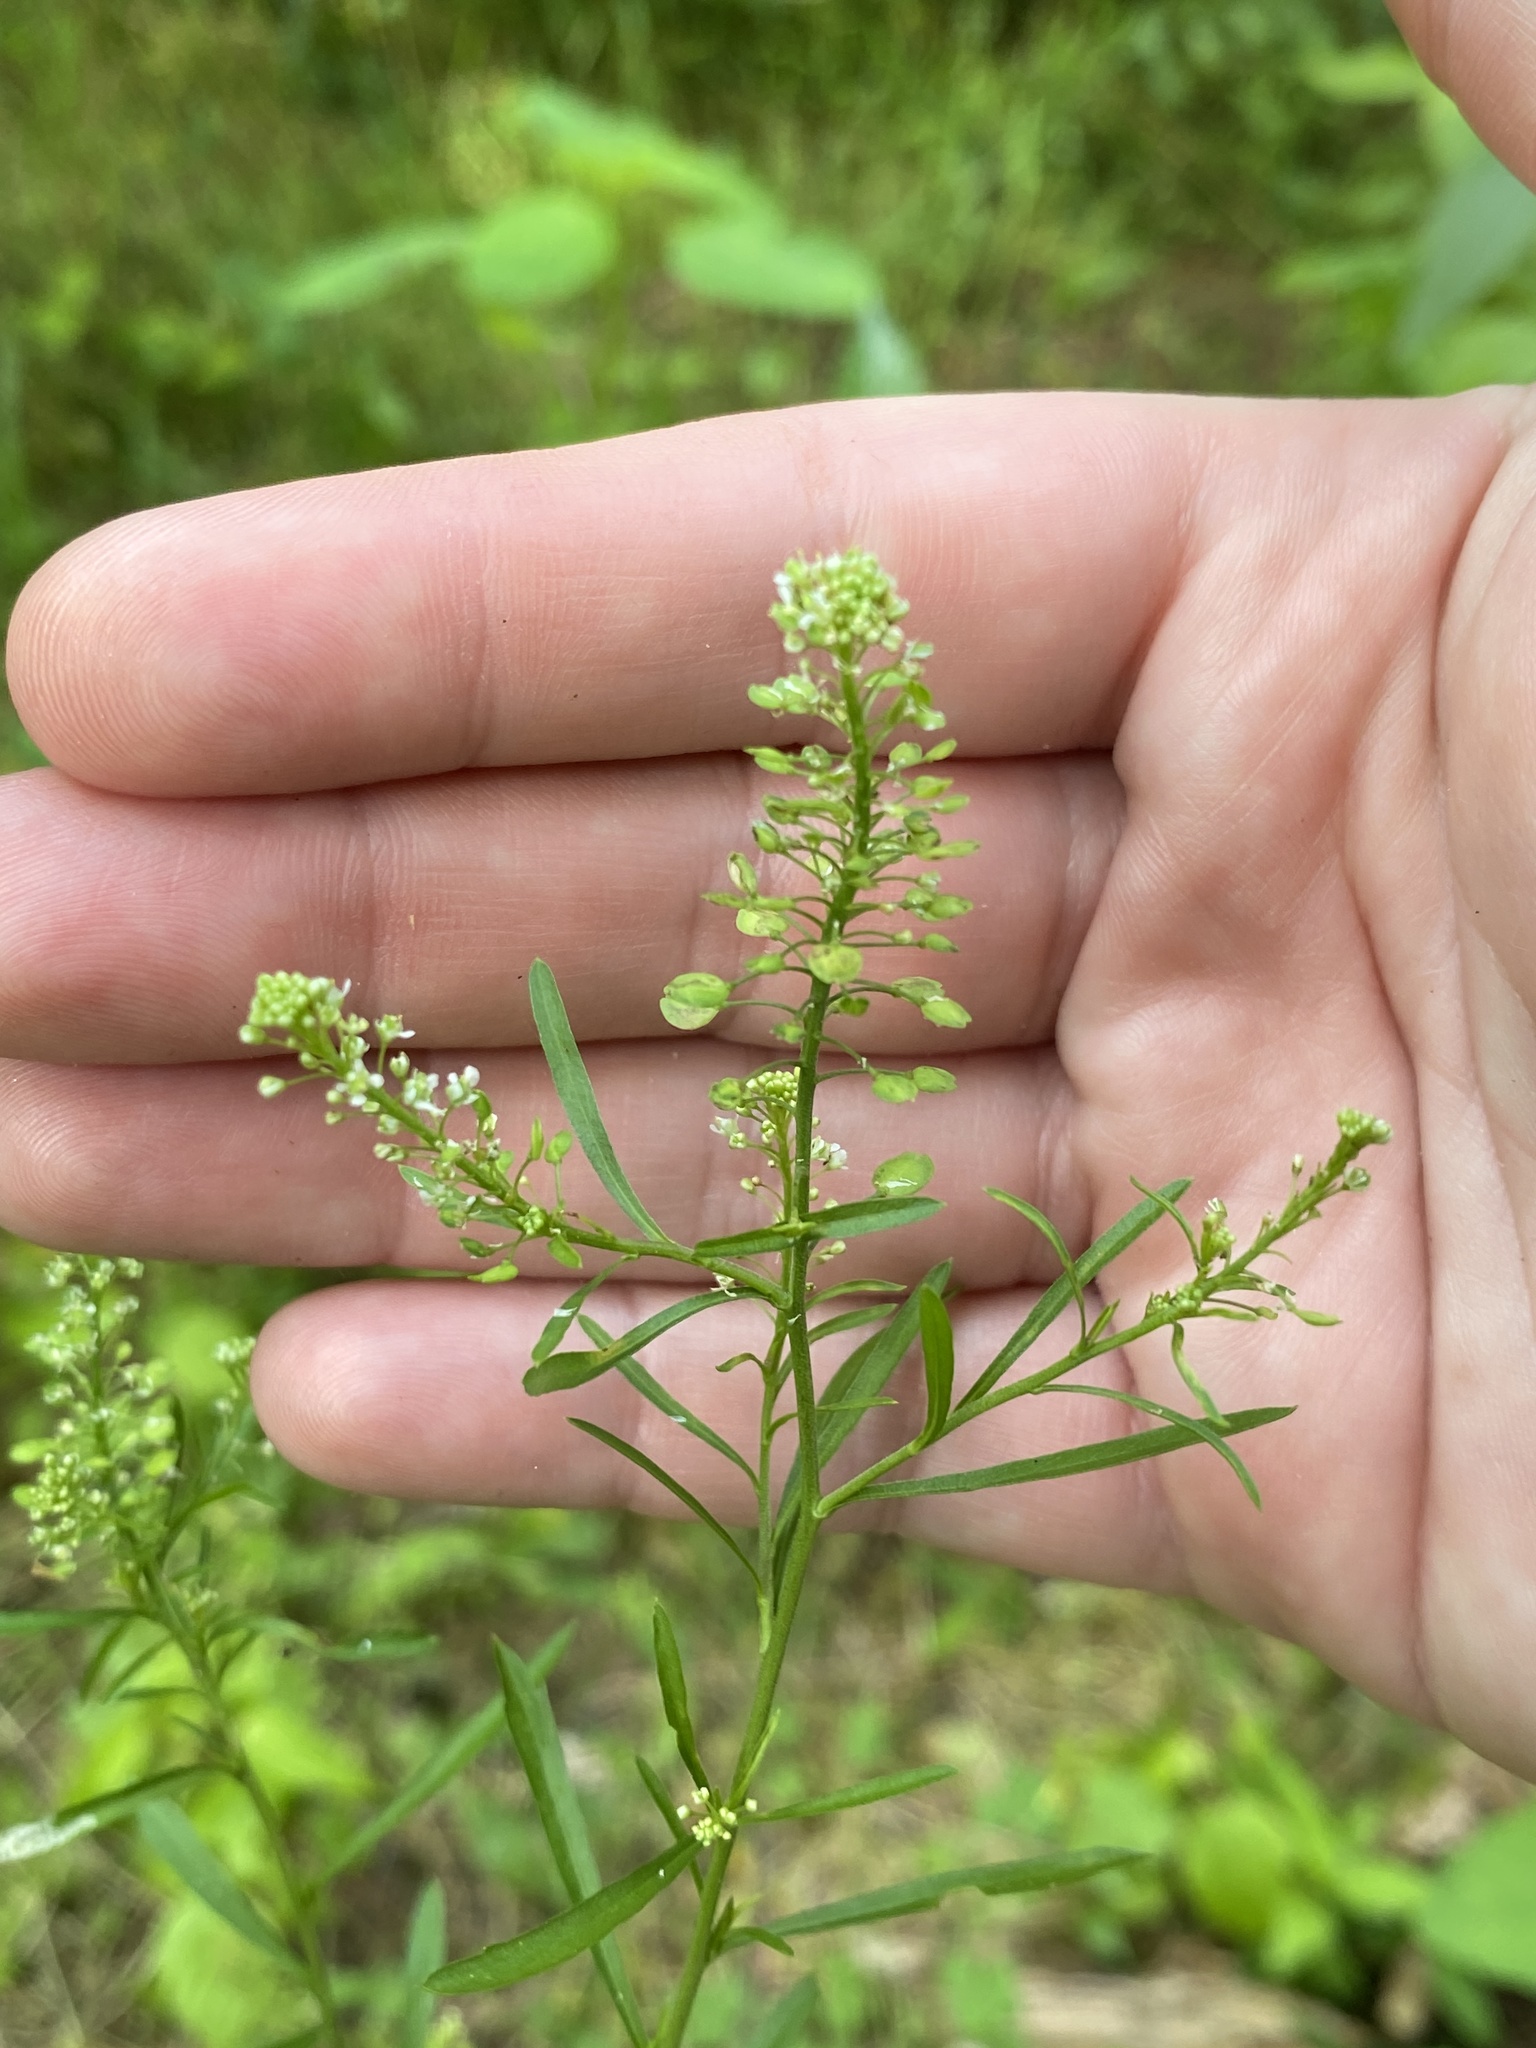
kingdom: Plantae
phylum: Tracheophyta
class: Magnoliopsida
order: Brassicales
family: Brassicaceae
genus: Lepidium
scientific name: Lepidium virginicum
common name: Least pepperwort
